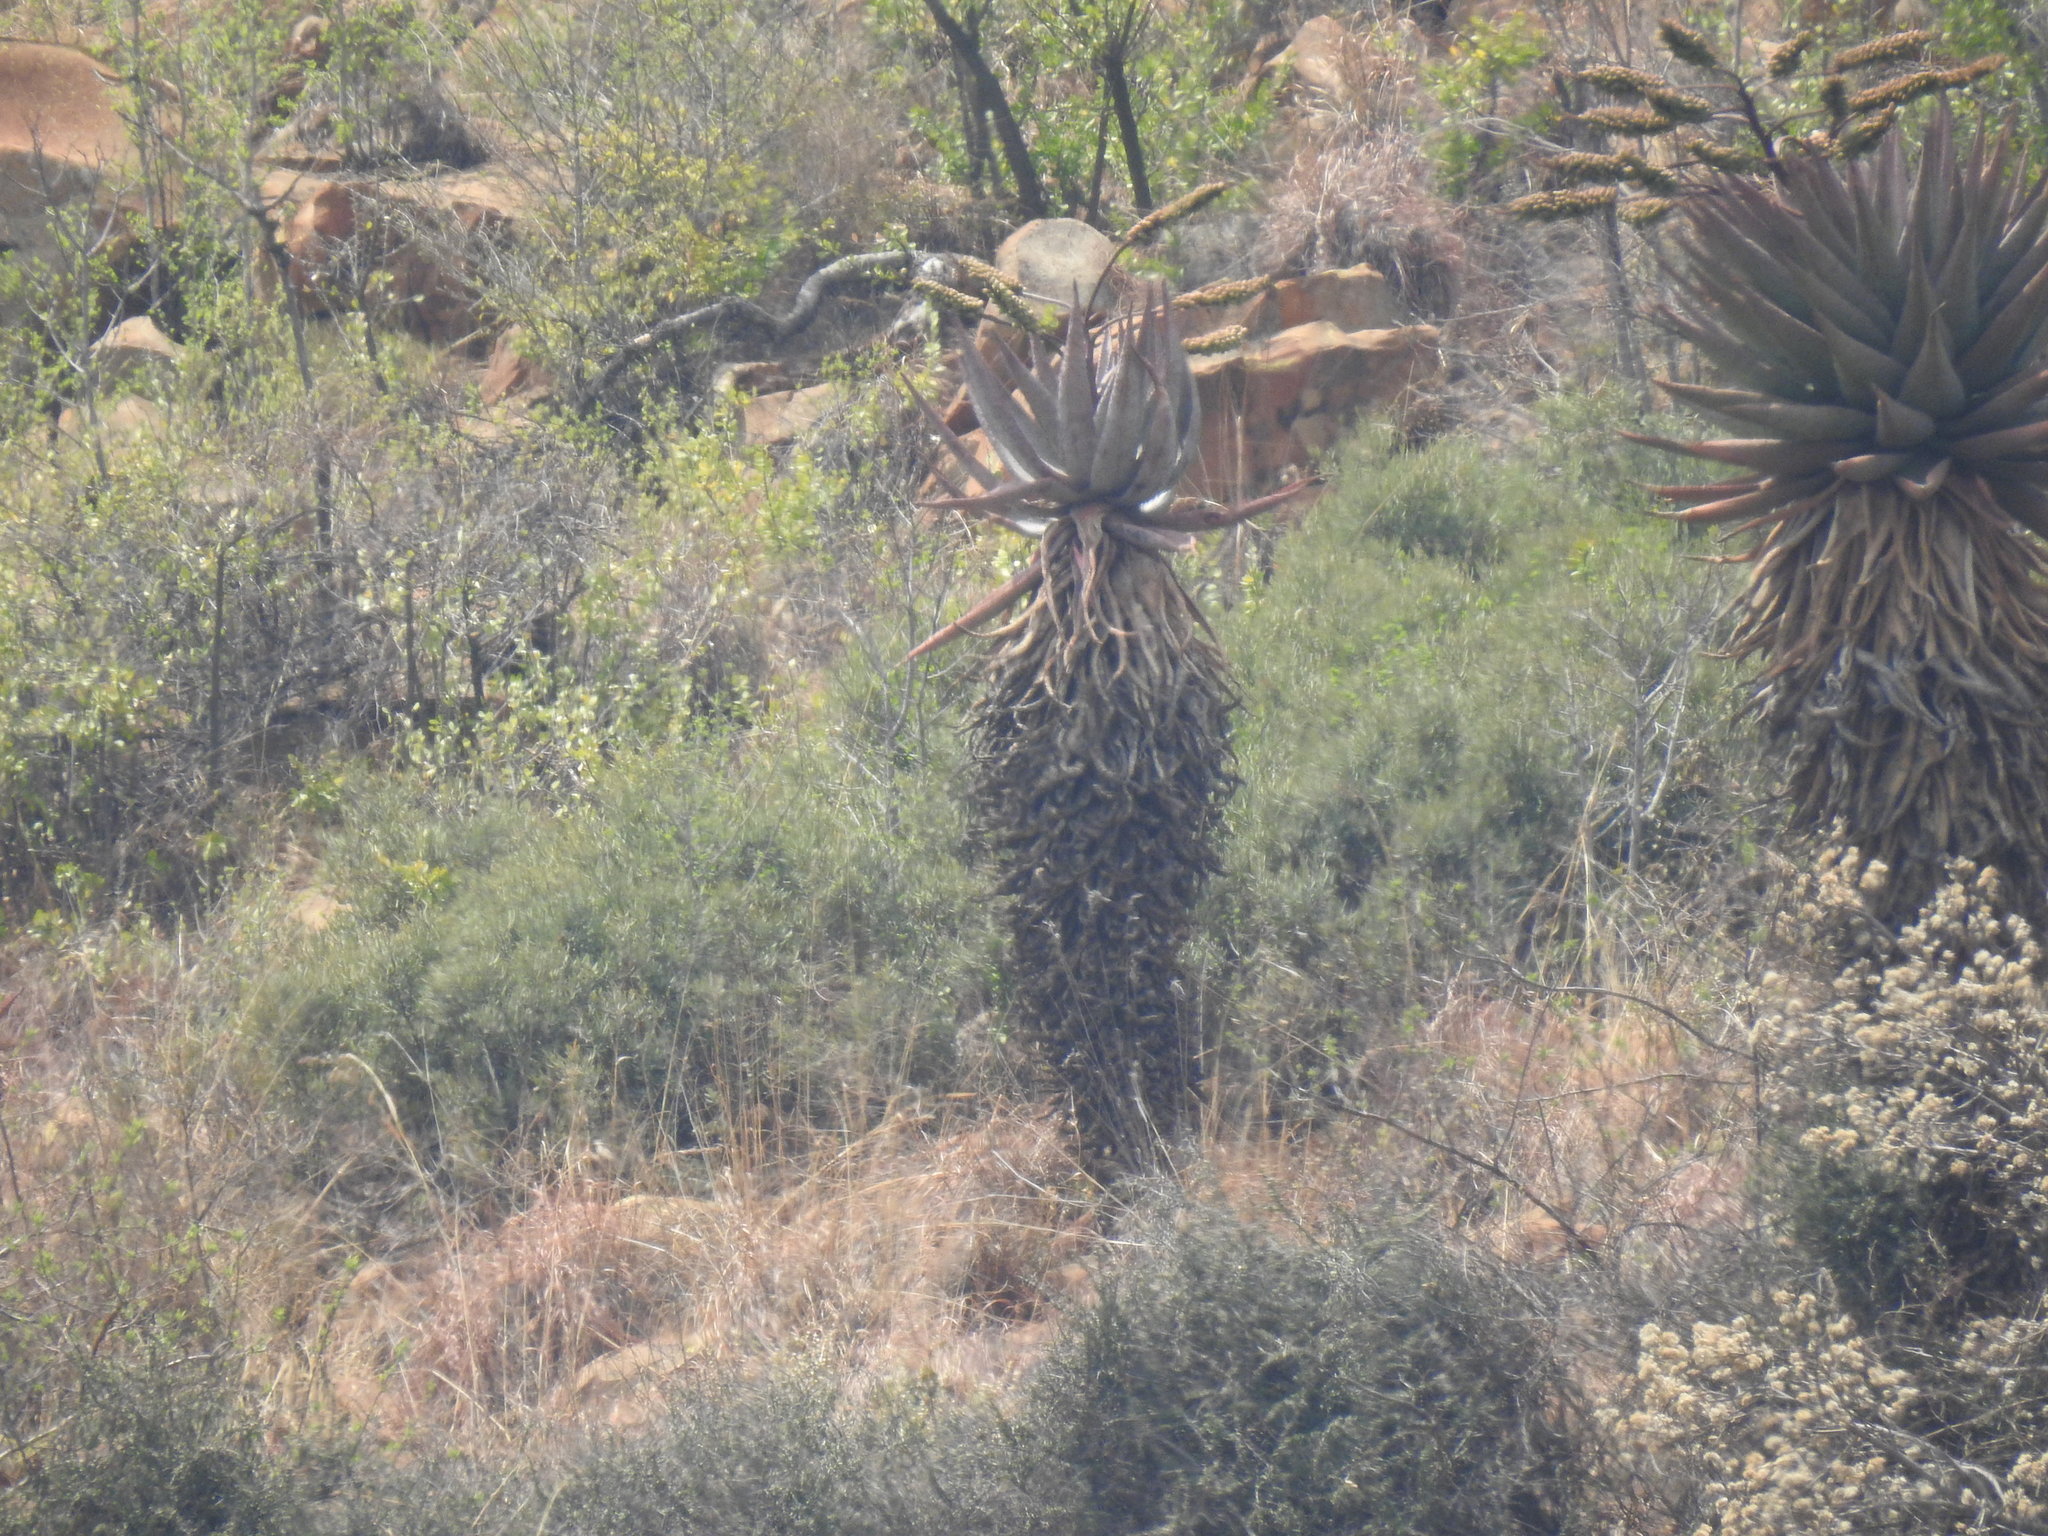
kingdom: Plantae
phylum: Tracheophyta
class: Liliopsida
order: Asparagales
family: Asphodelaceae
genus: Aloe
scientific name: Aloe marlothii
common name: Flat-flowered aloe
